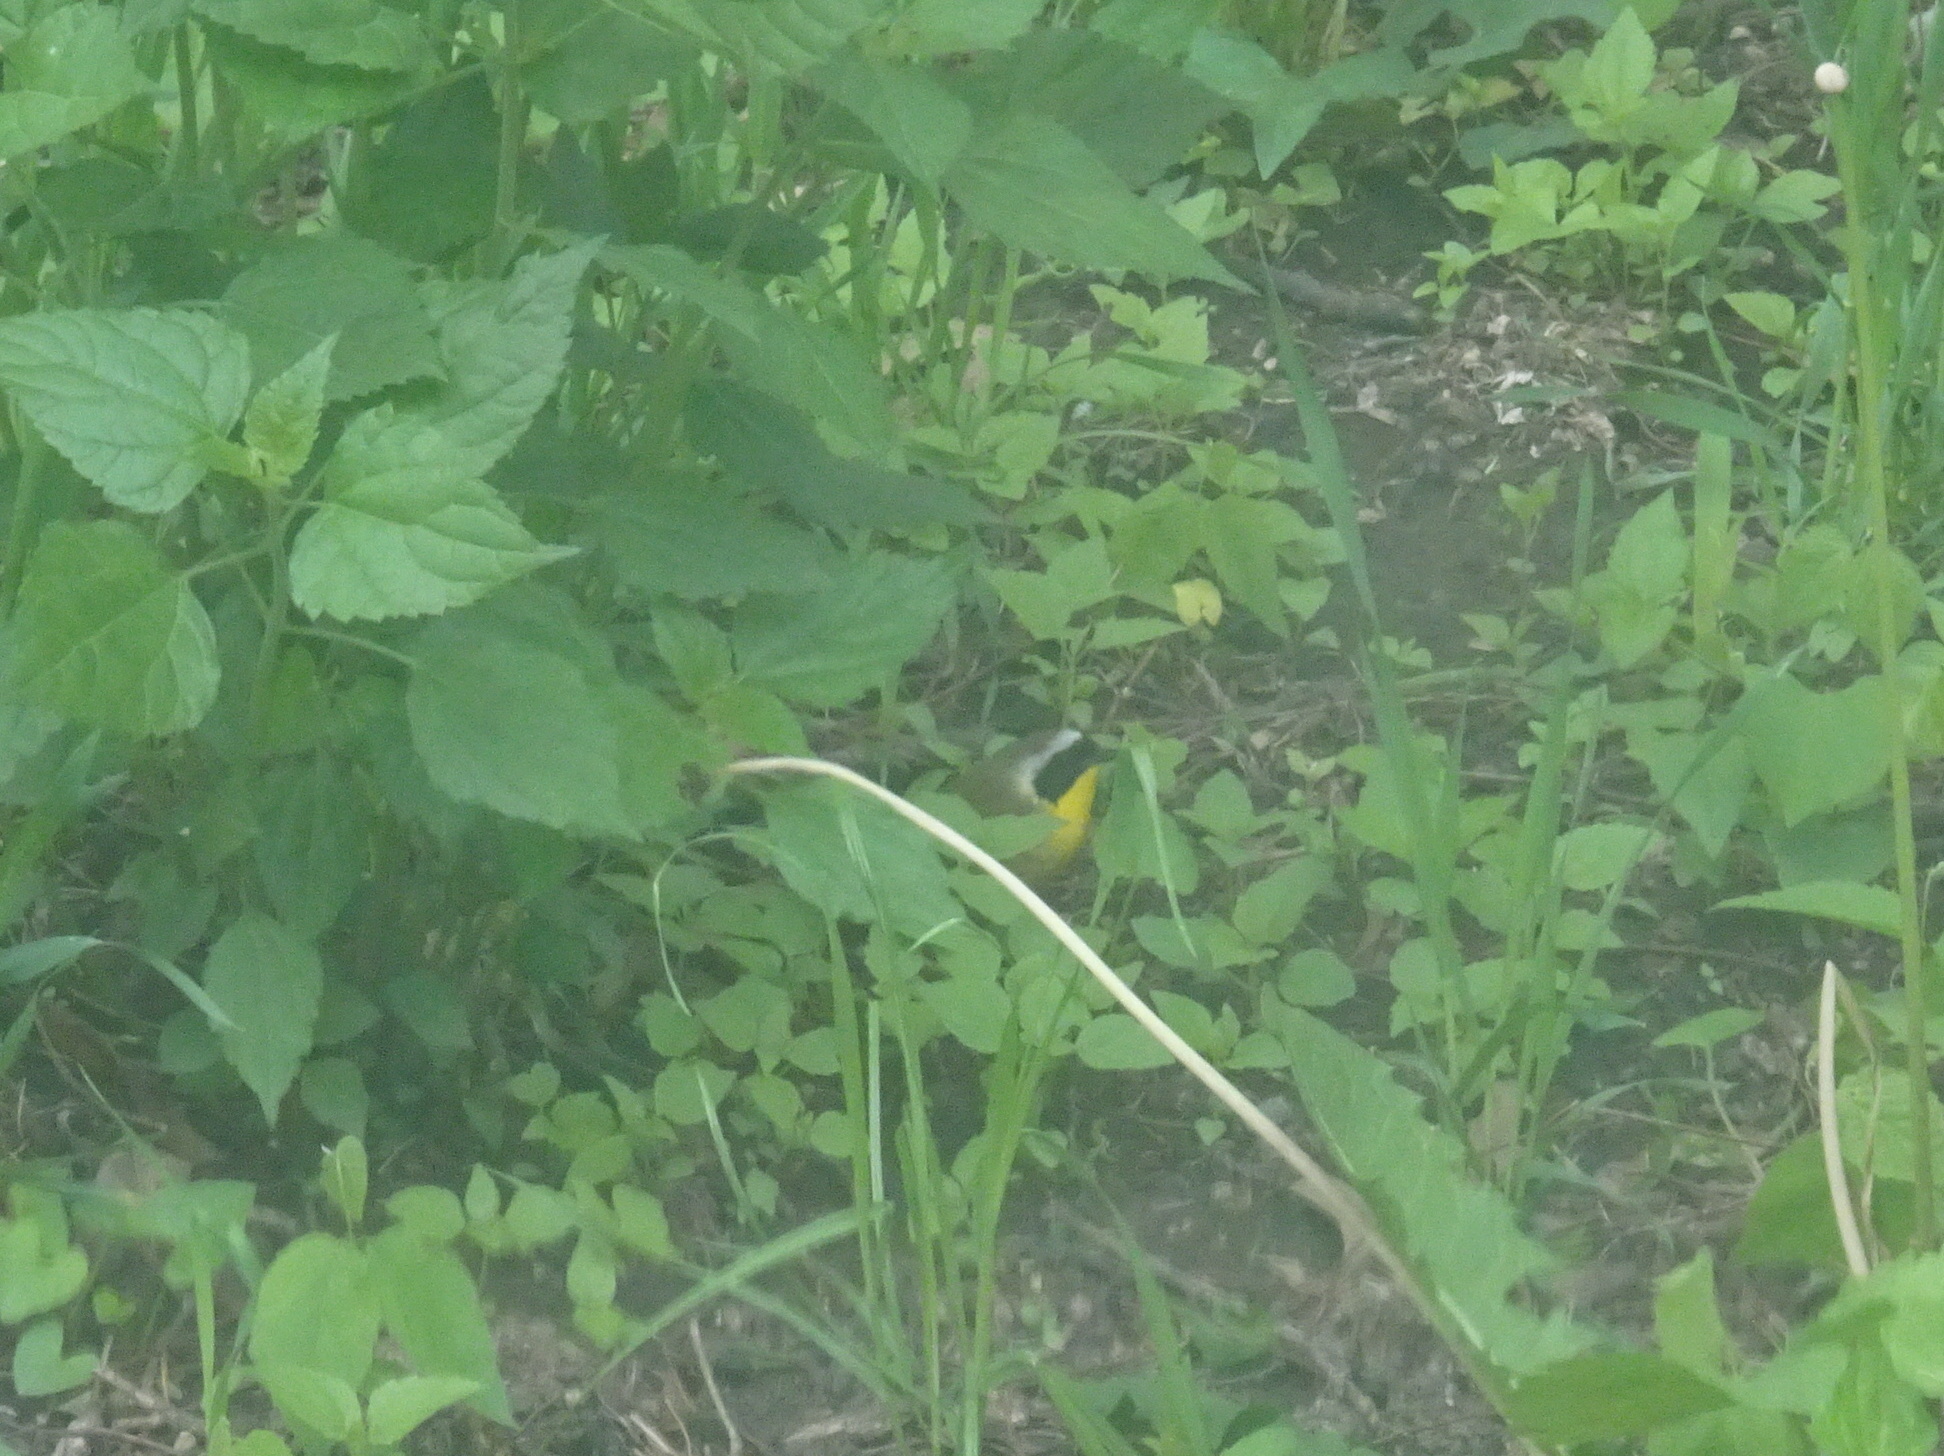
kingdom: Animalia
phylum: Chordata
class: Aves
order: Passeriformes
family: Parulidae
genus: Geothlypis
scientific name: Geothlypis trichas
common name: Common yellowthroat
